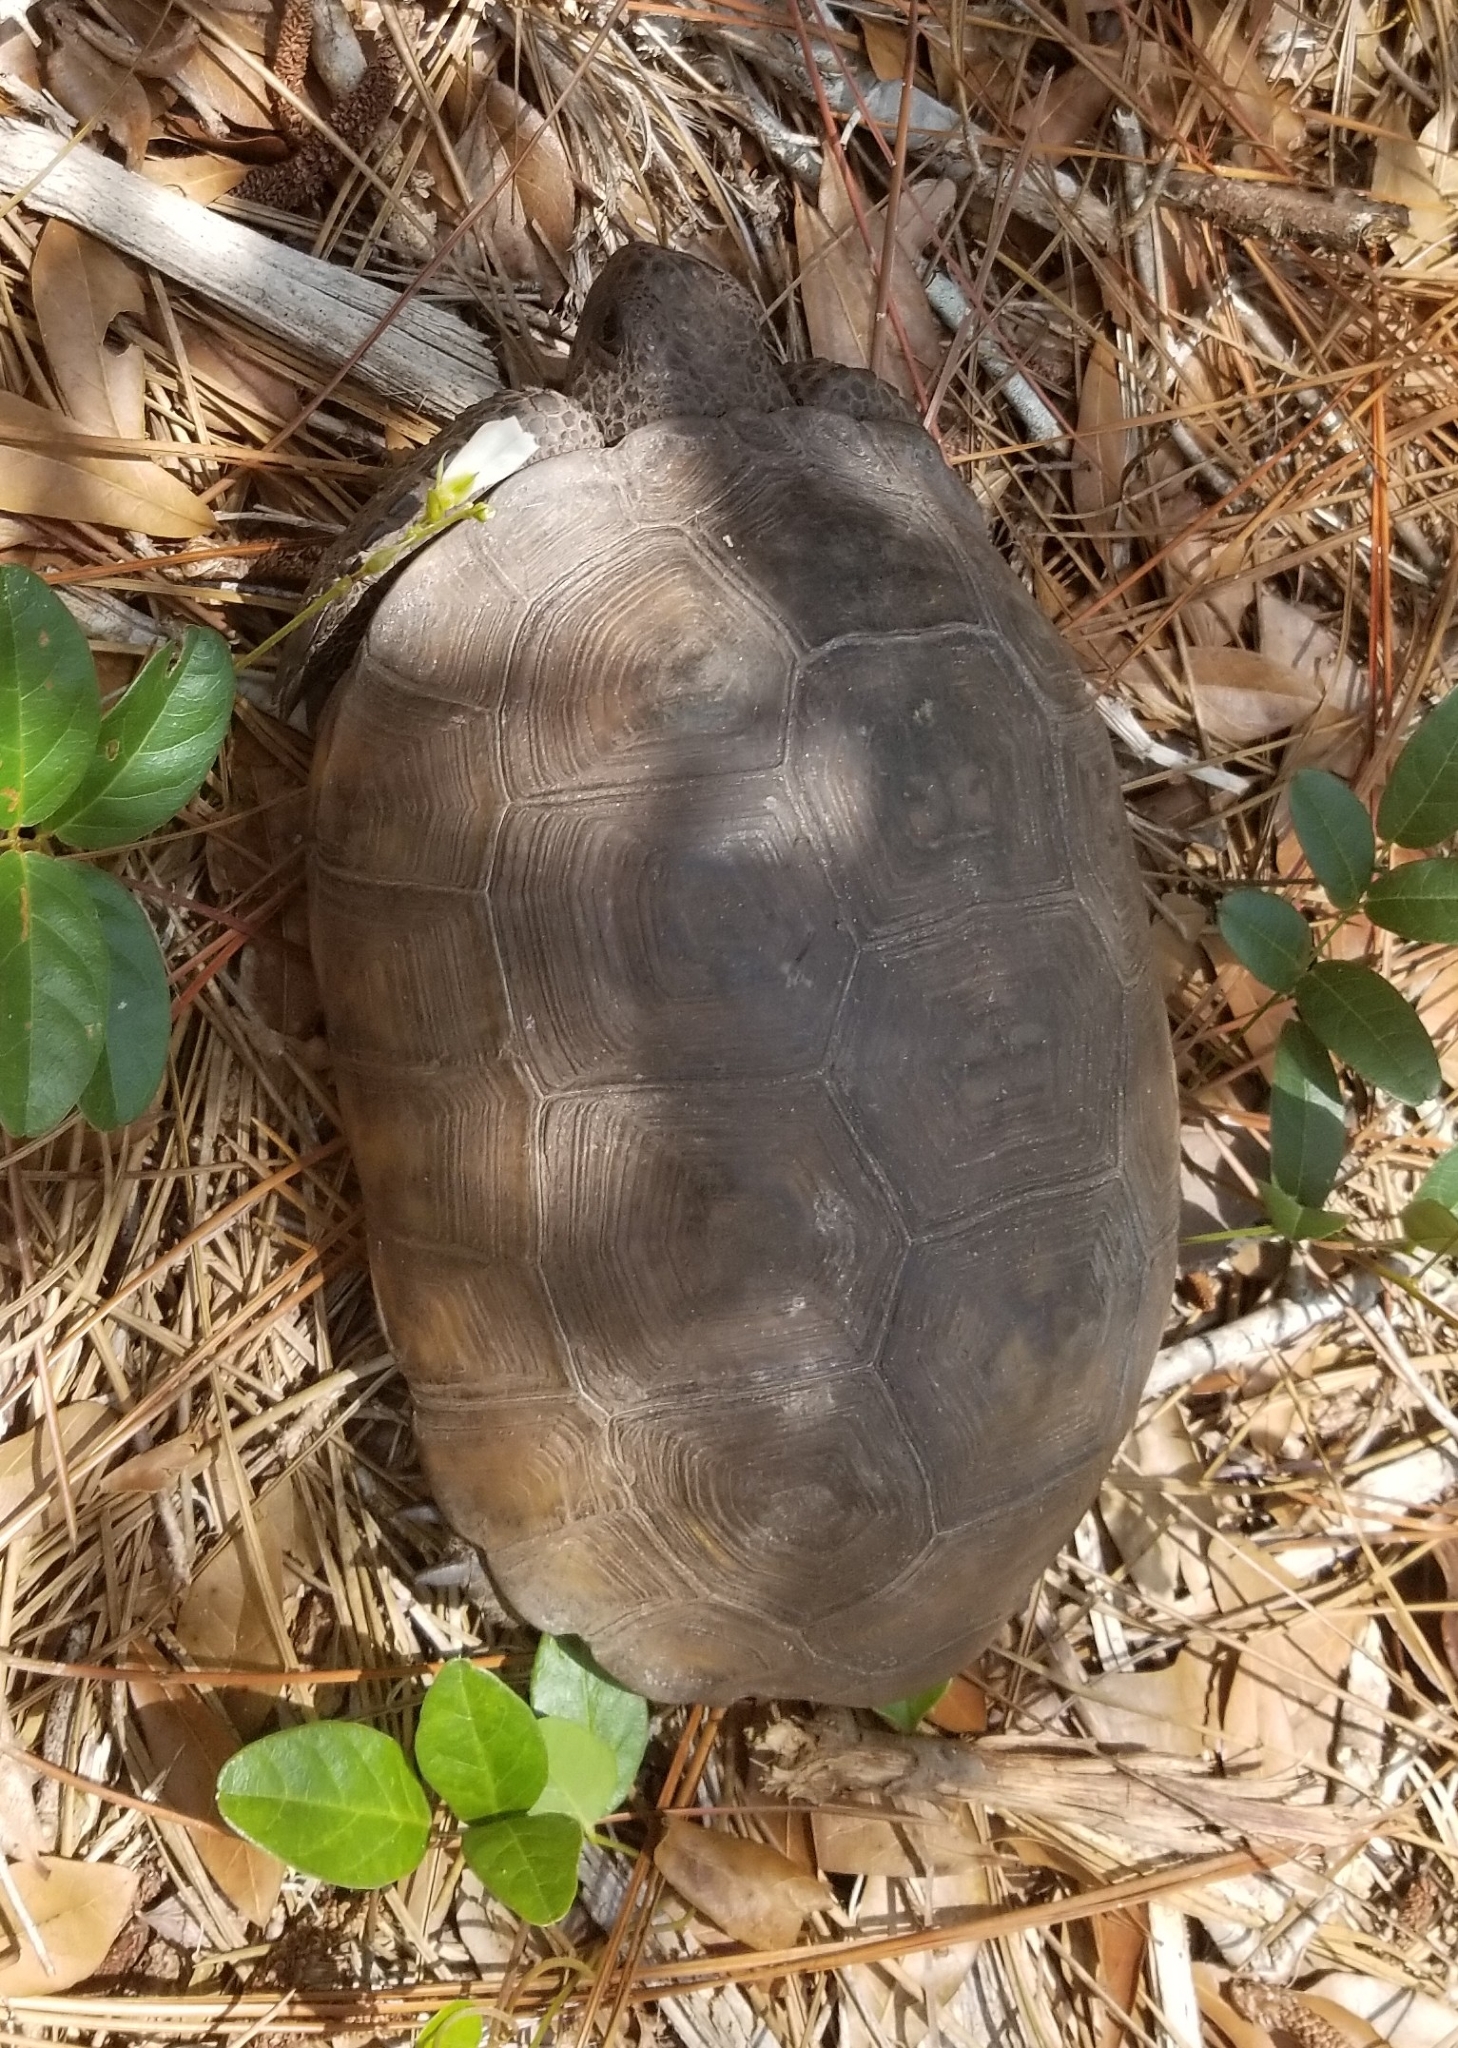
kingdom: Animalia
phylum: Chordata
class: Testudines
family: Testudinidae
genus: Gopherus
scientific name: Gopherus polyphemus
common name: Florida gopher tortoise
